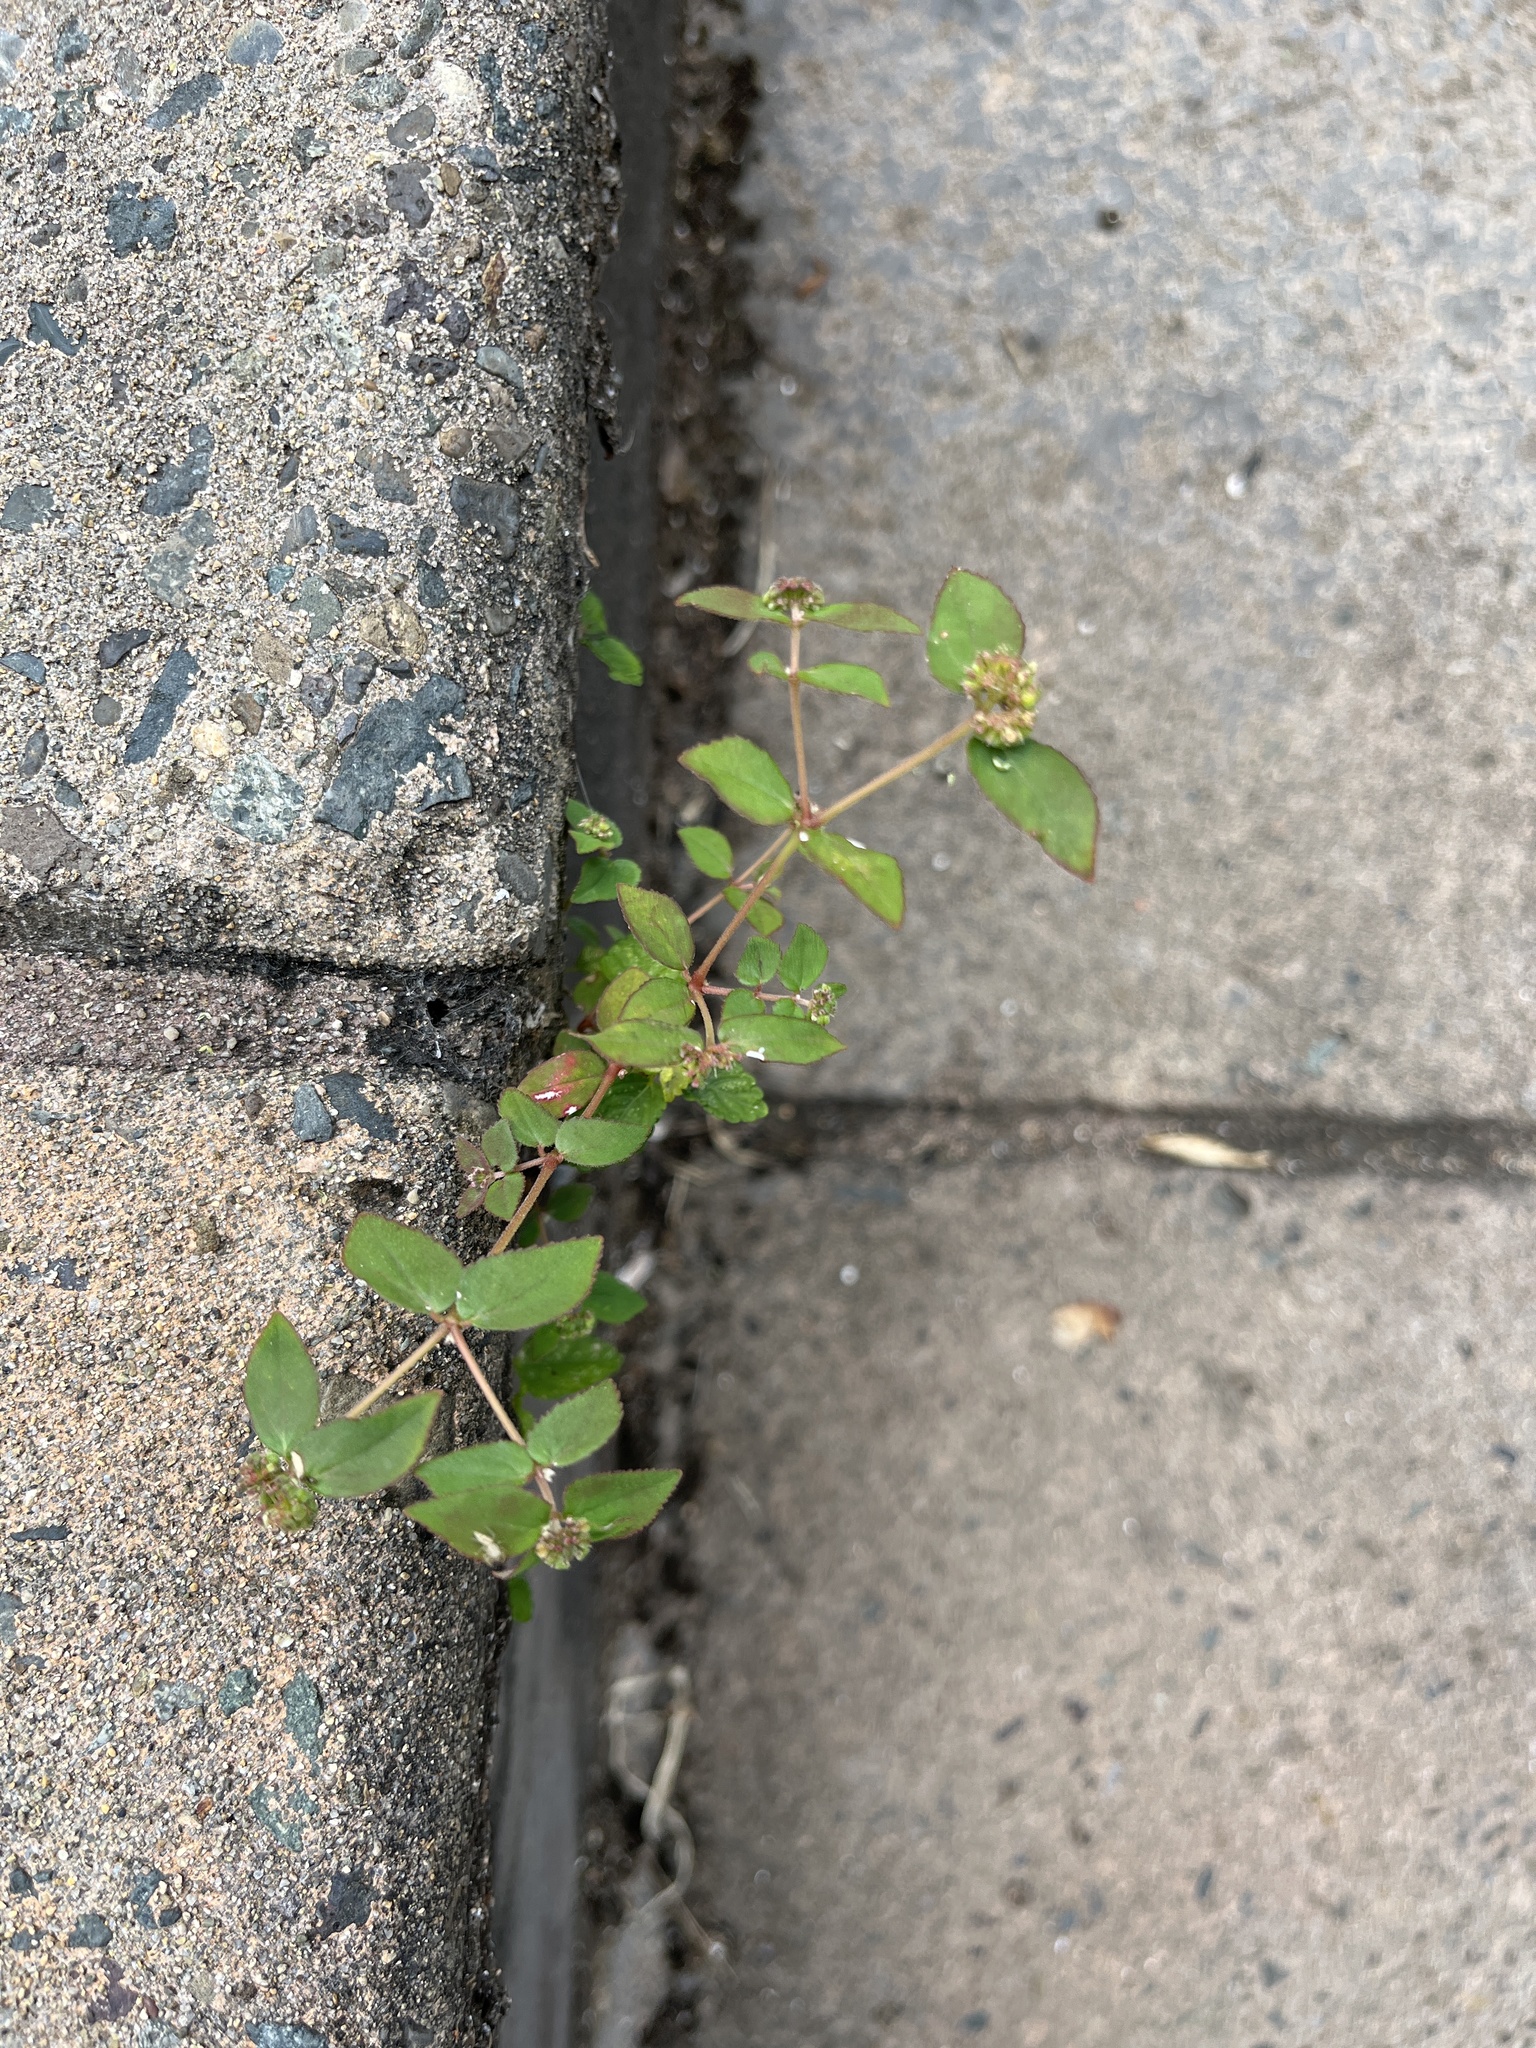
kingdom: Plantae
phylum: Tracheophyta
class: Magnoliopsida
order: Malpighiales
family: Euphorbiaceae
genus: Euphorbia
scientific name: Euphorbia ophthalmica
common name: Florida hammock sandmat
